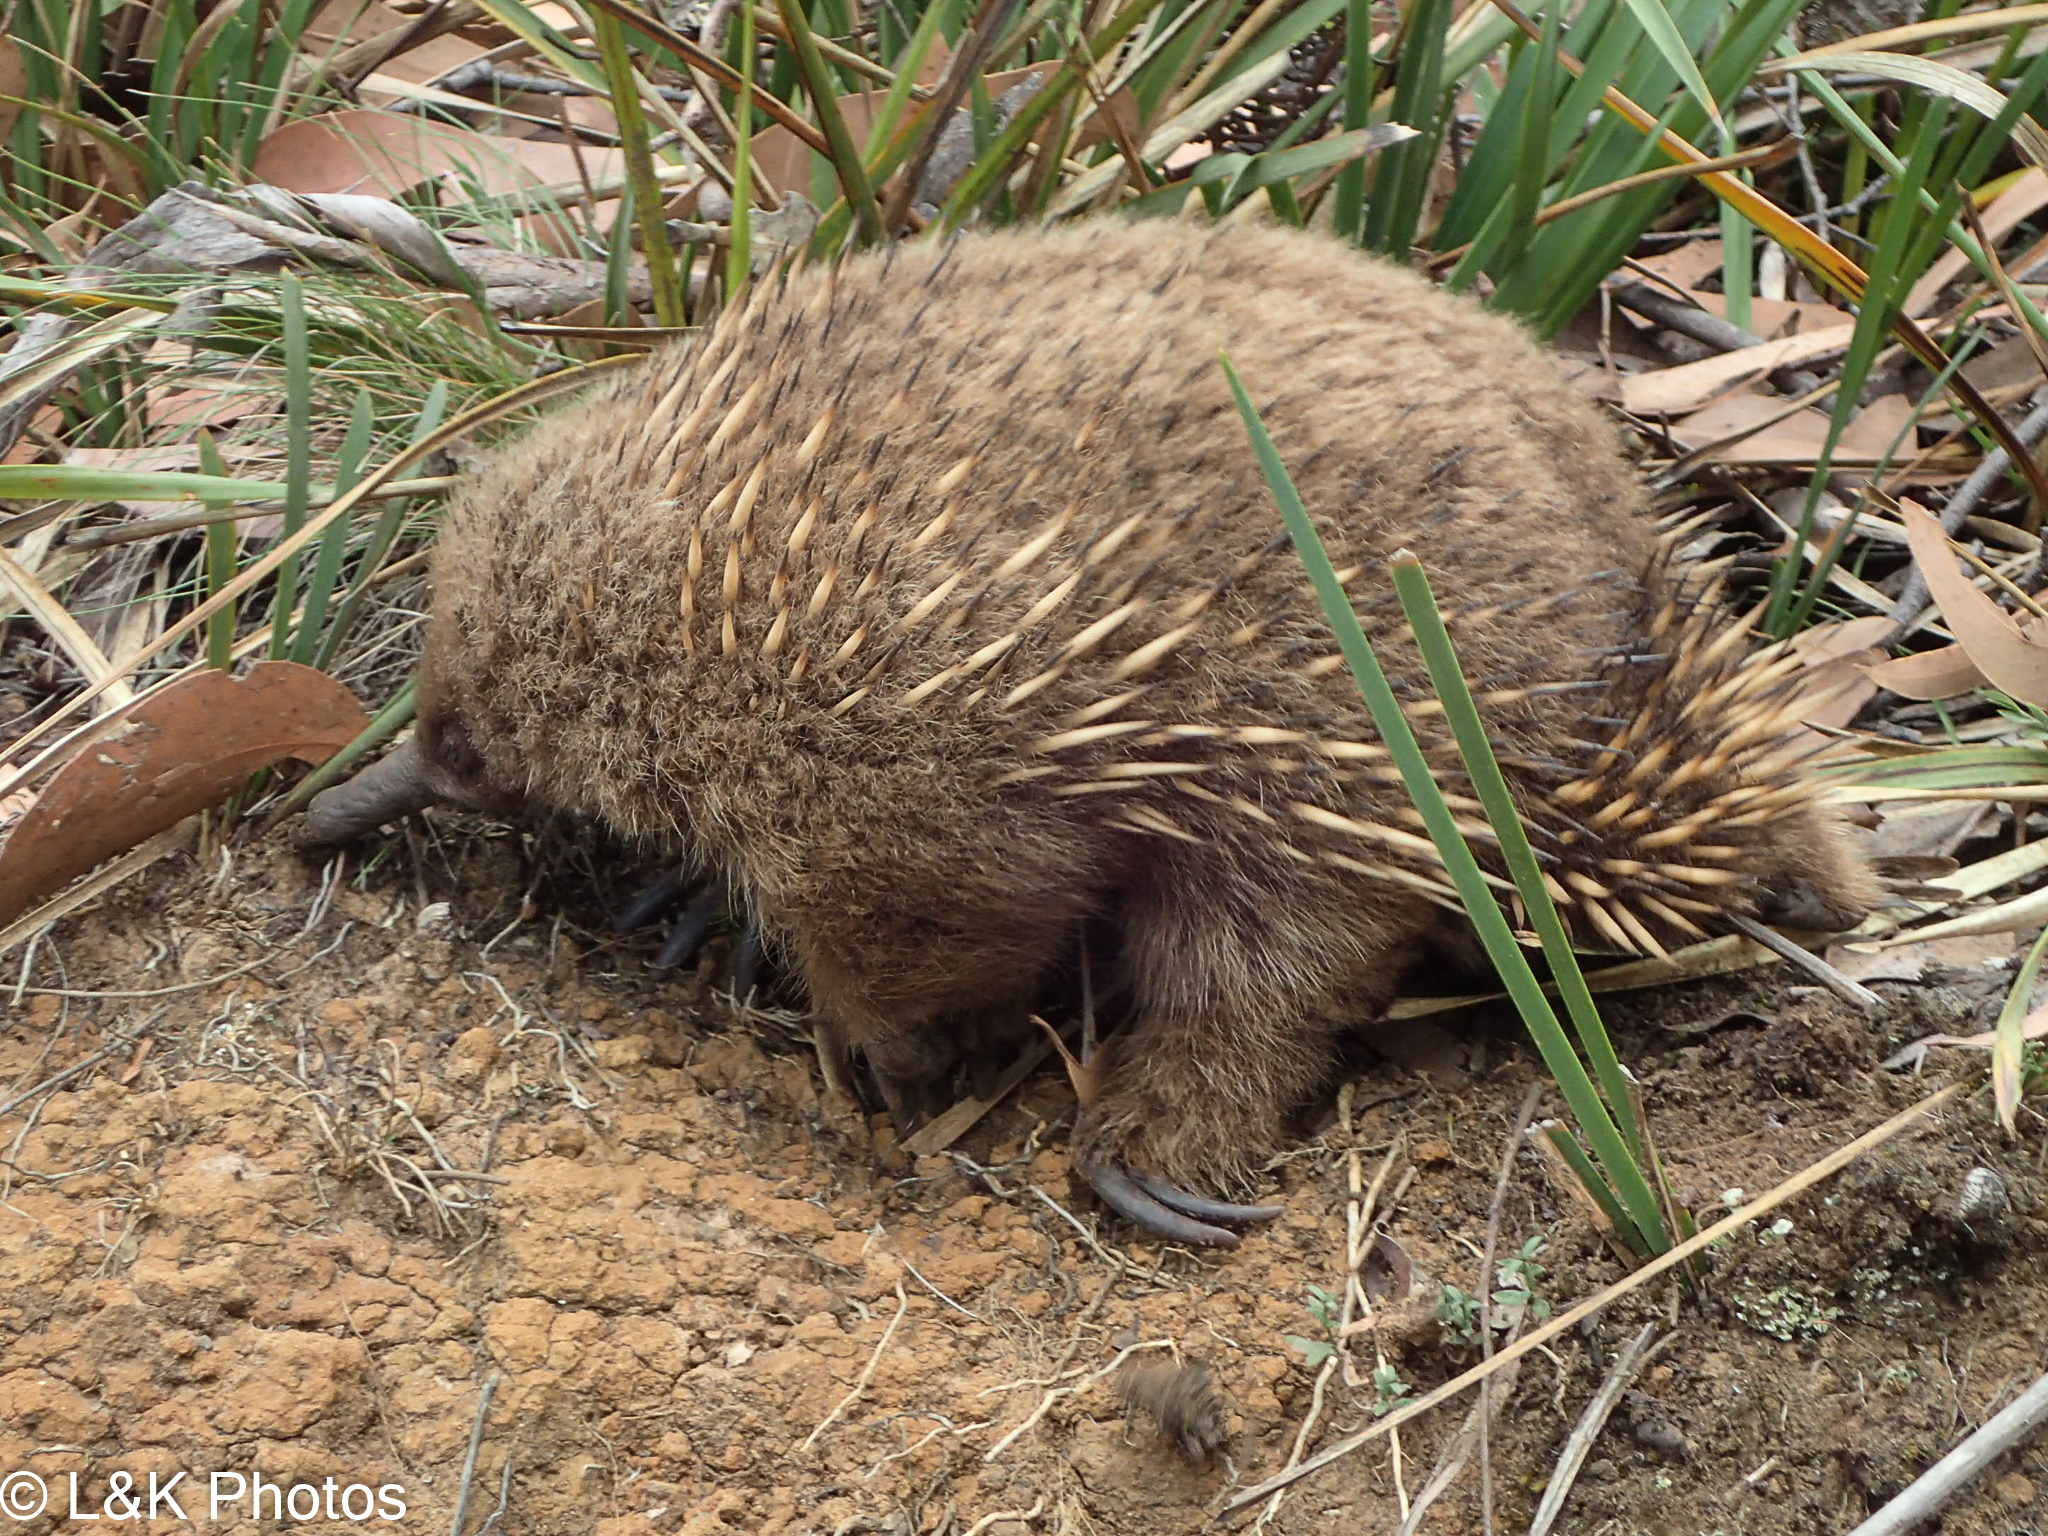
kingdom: Animalia
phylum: Chordata
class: Mammalia
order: Monotremata
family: Tachyglossidae
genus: Tachyglossus
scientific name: Tachyglossus aculeatus
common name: Short-beaked echidna
